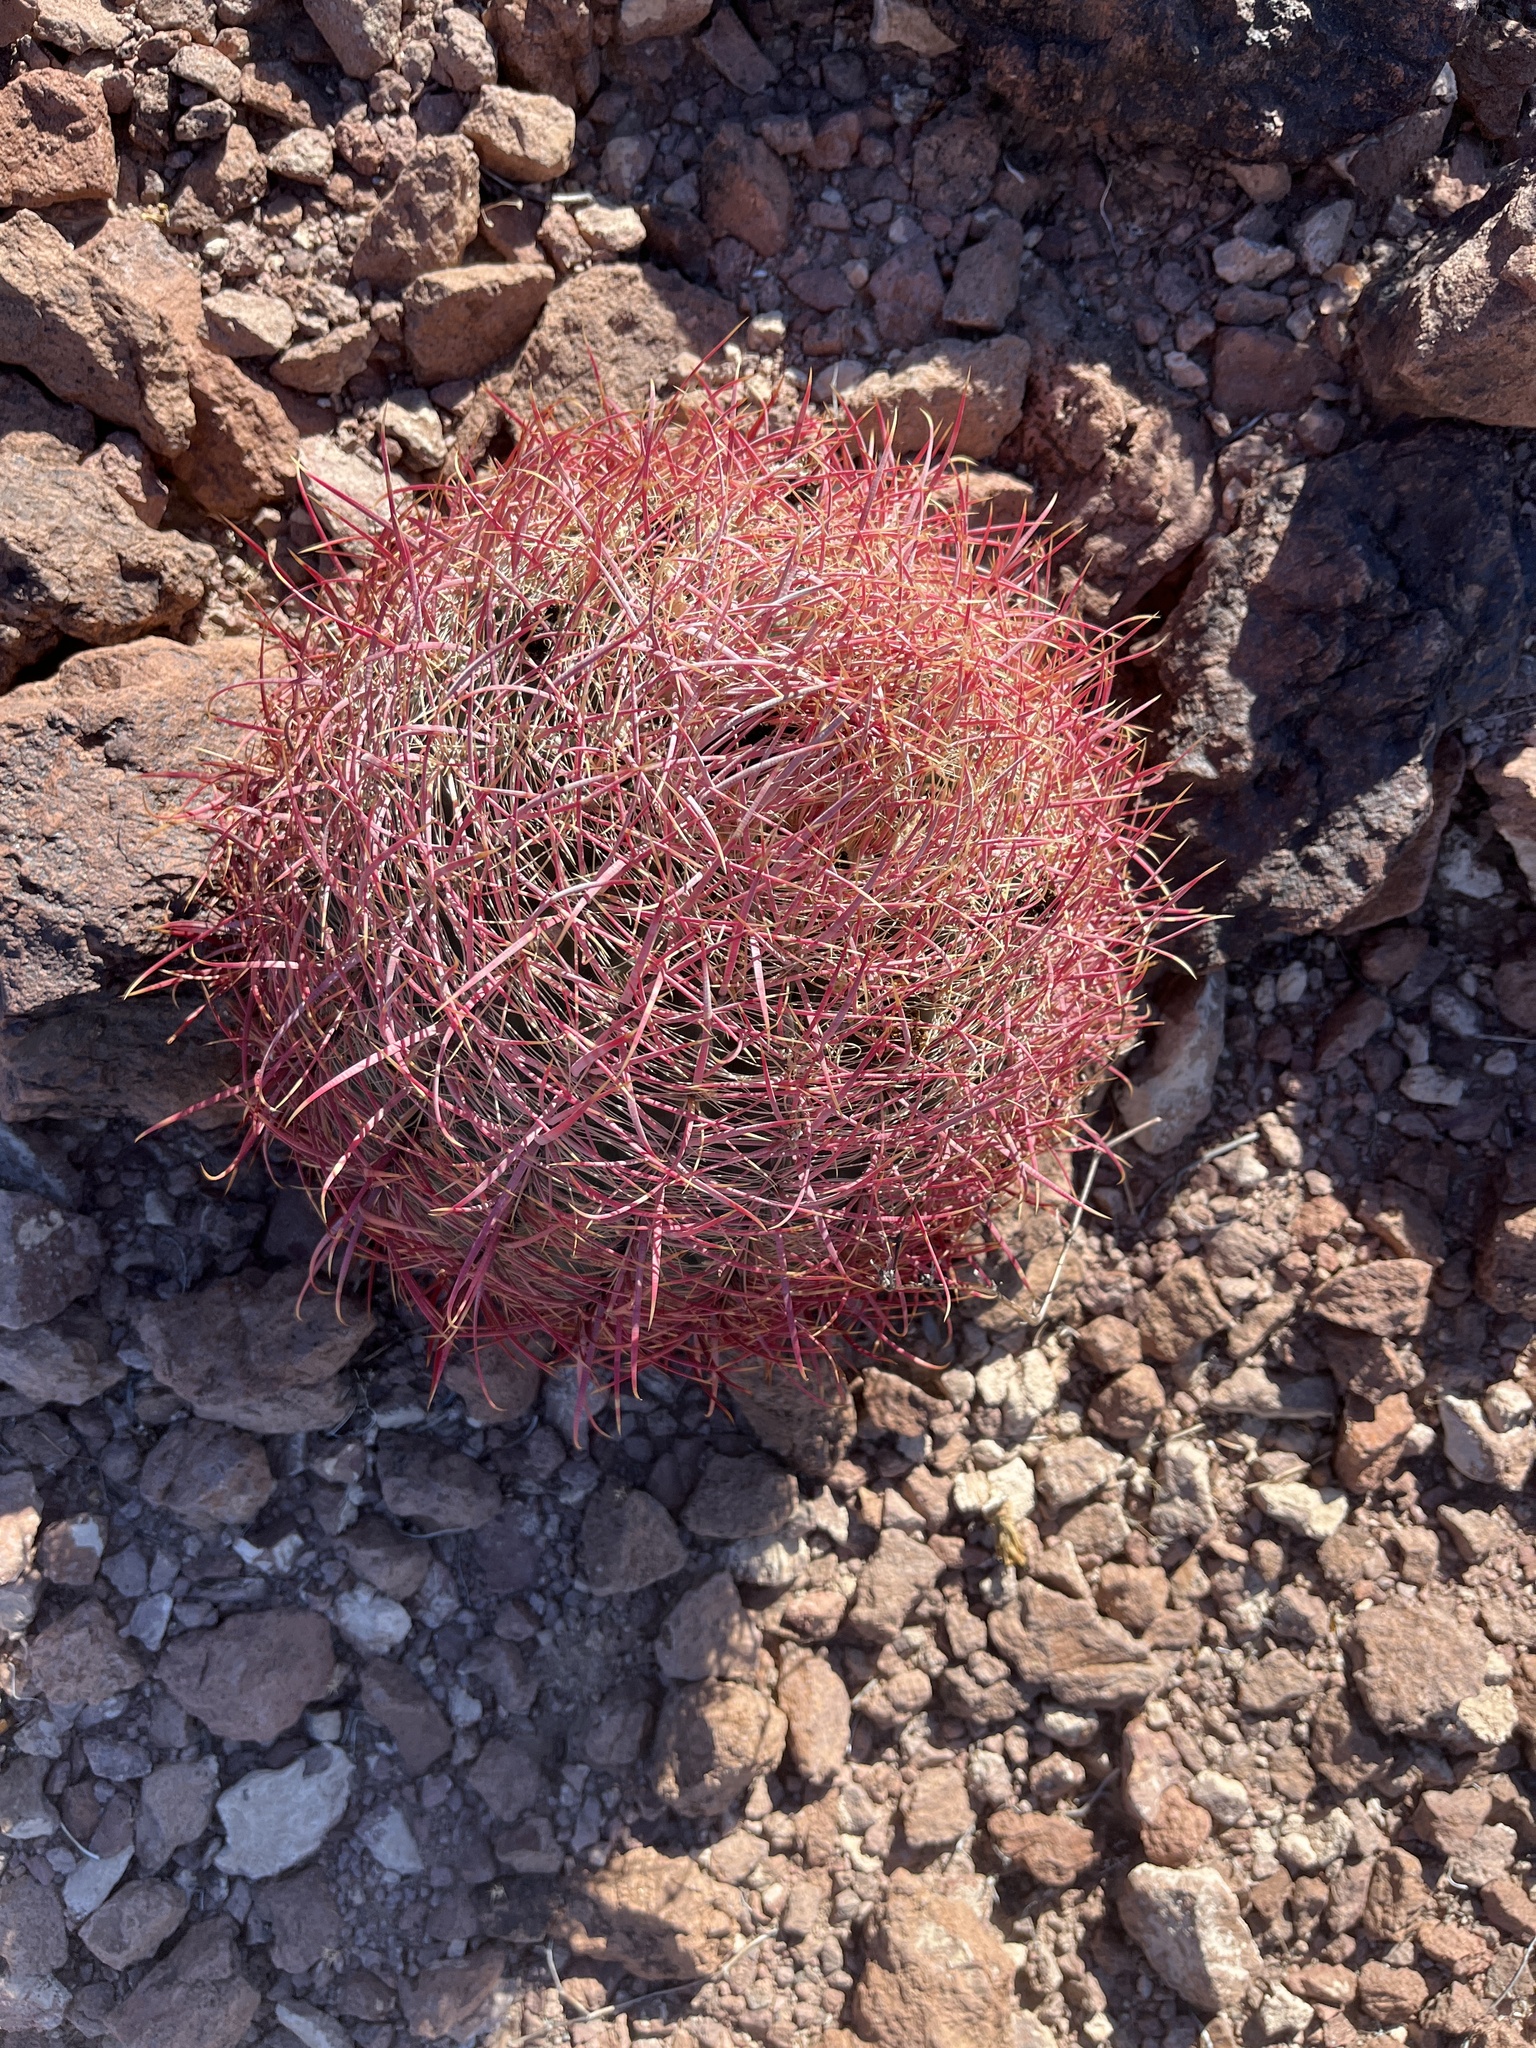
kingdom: Plantae
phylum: Tracheophyta
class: Magnoliopsida
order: Caryophyllales
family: Cactaceae
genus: Ferocactus
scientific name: Ferocactus cylindraceus
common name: California barrel cactus
